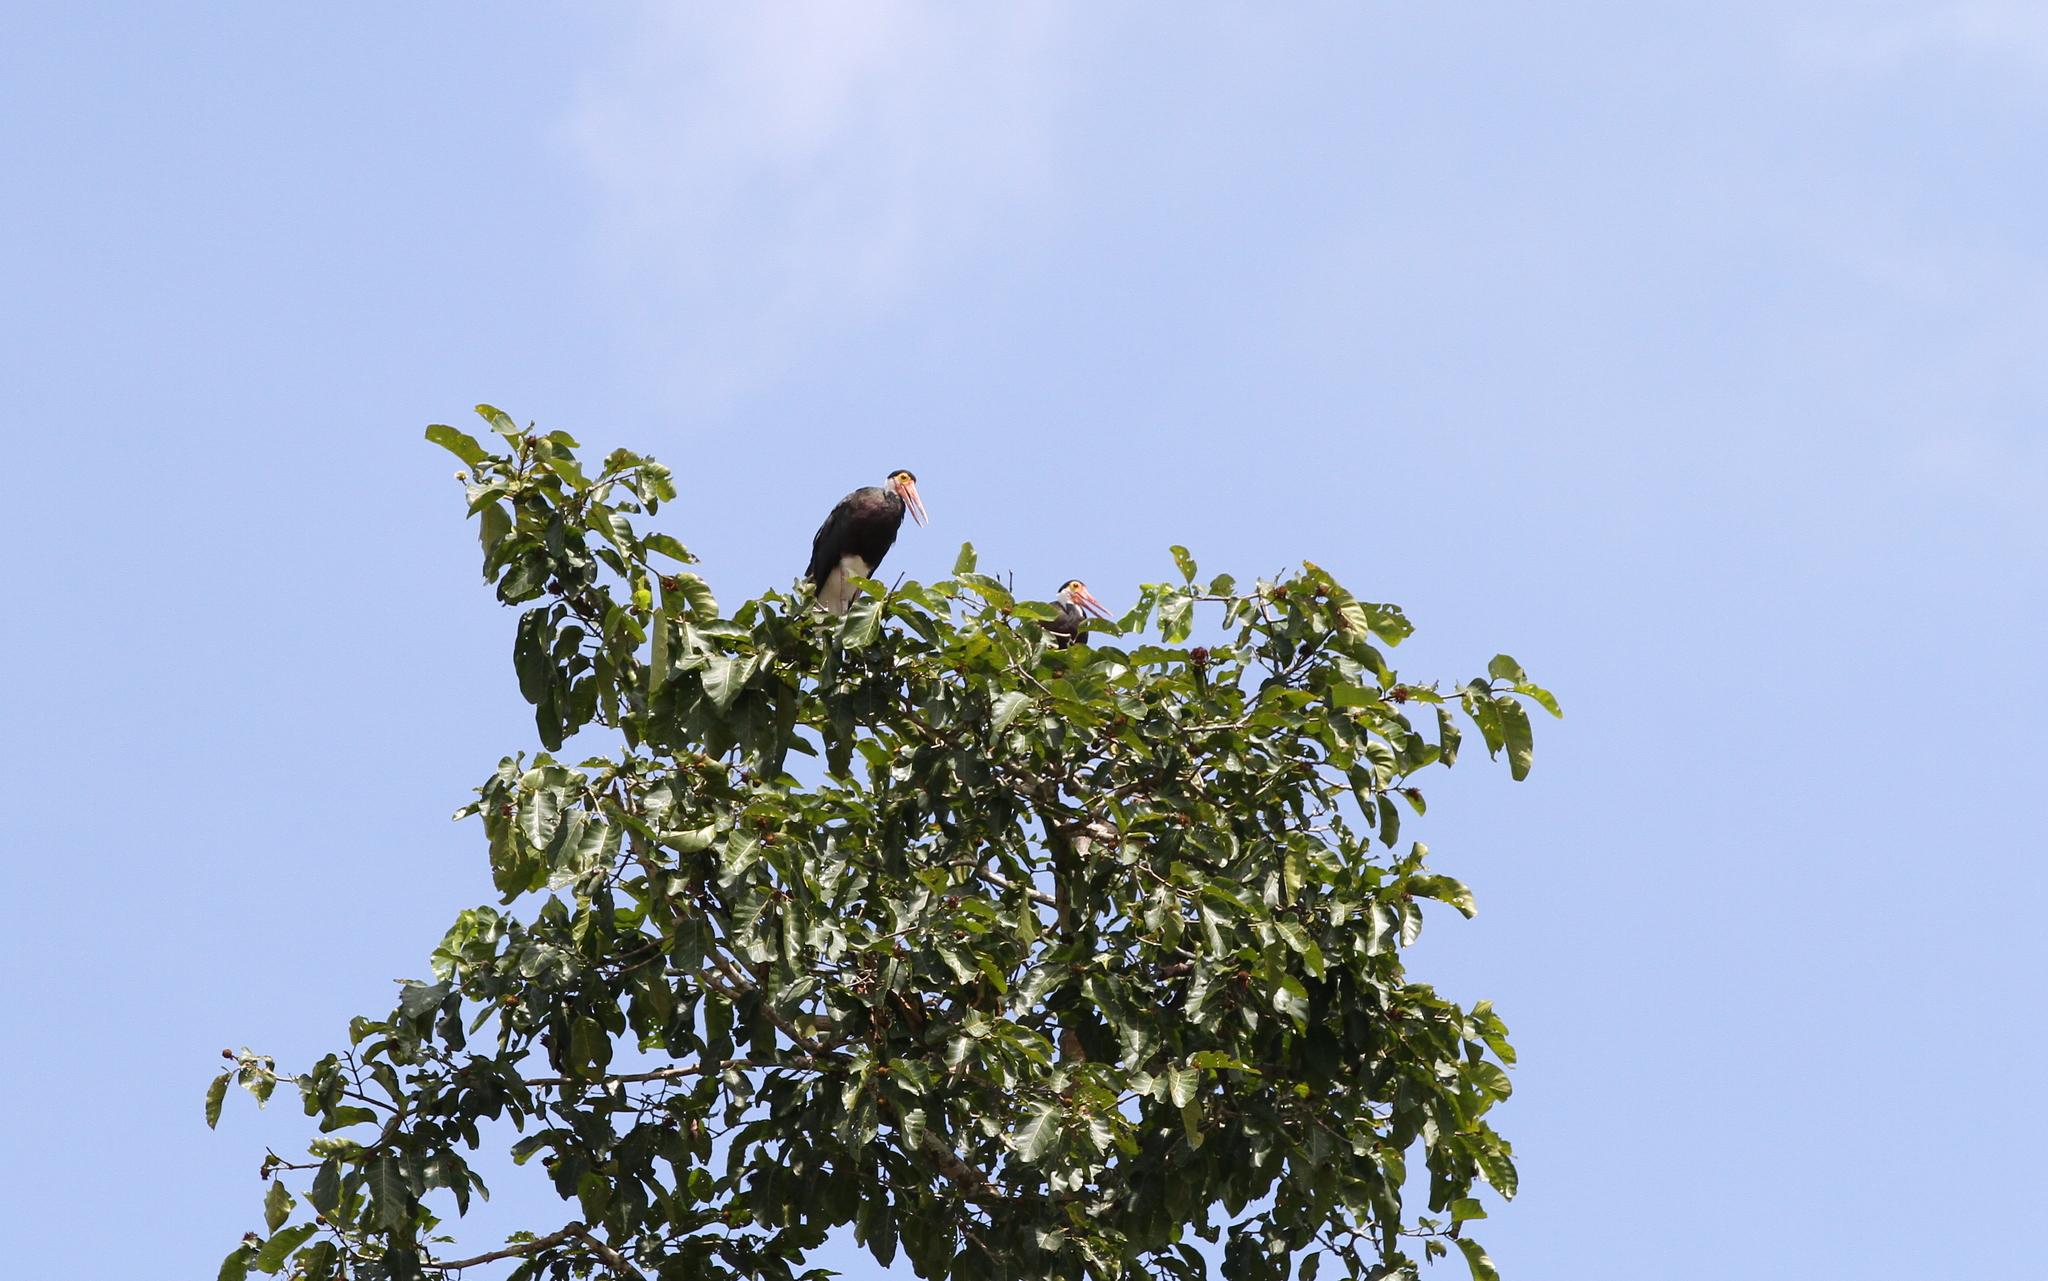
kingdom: Animalia
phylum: Chordata
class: Aves
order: Ciconiiformes
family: Ciconiidae
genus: Ciconia
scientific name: Ciconia stormi
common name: Storm's stork
